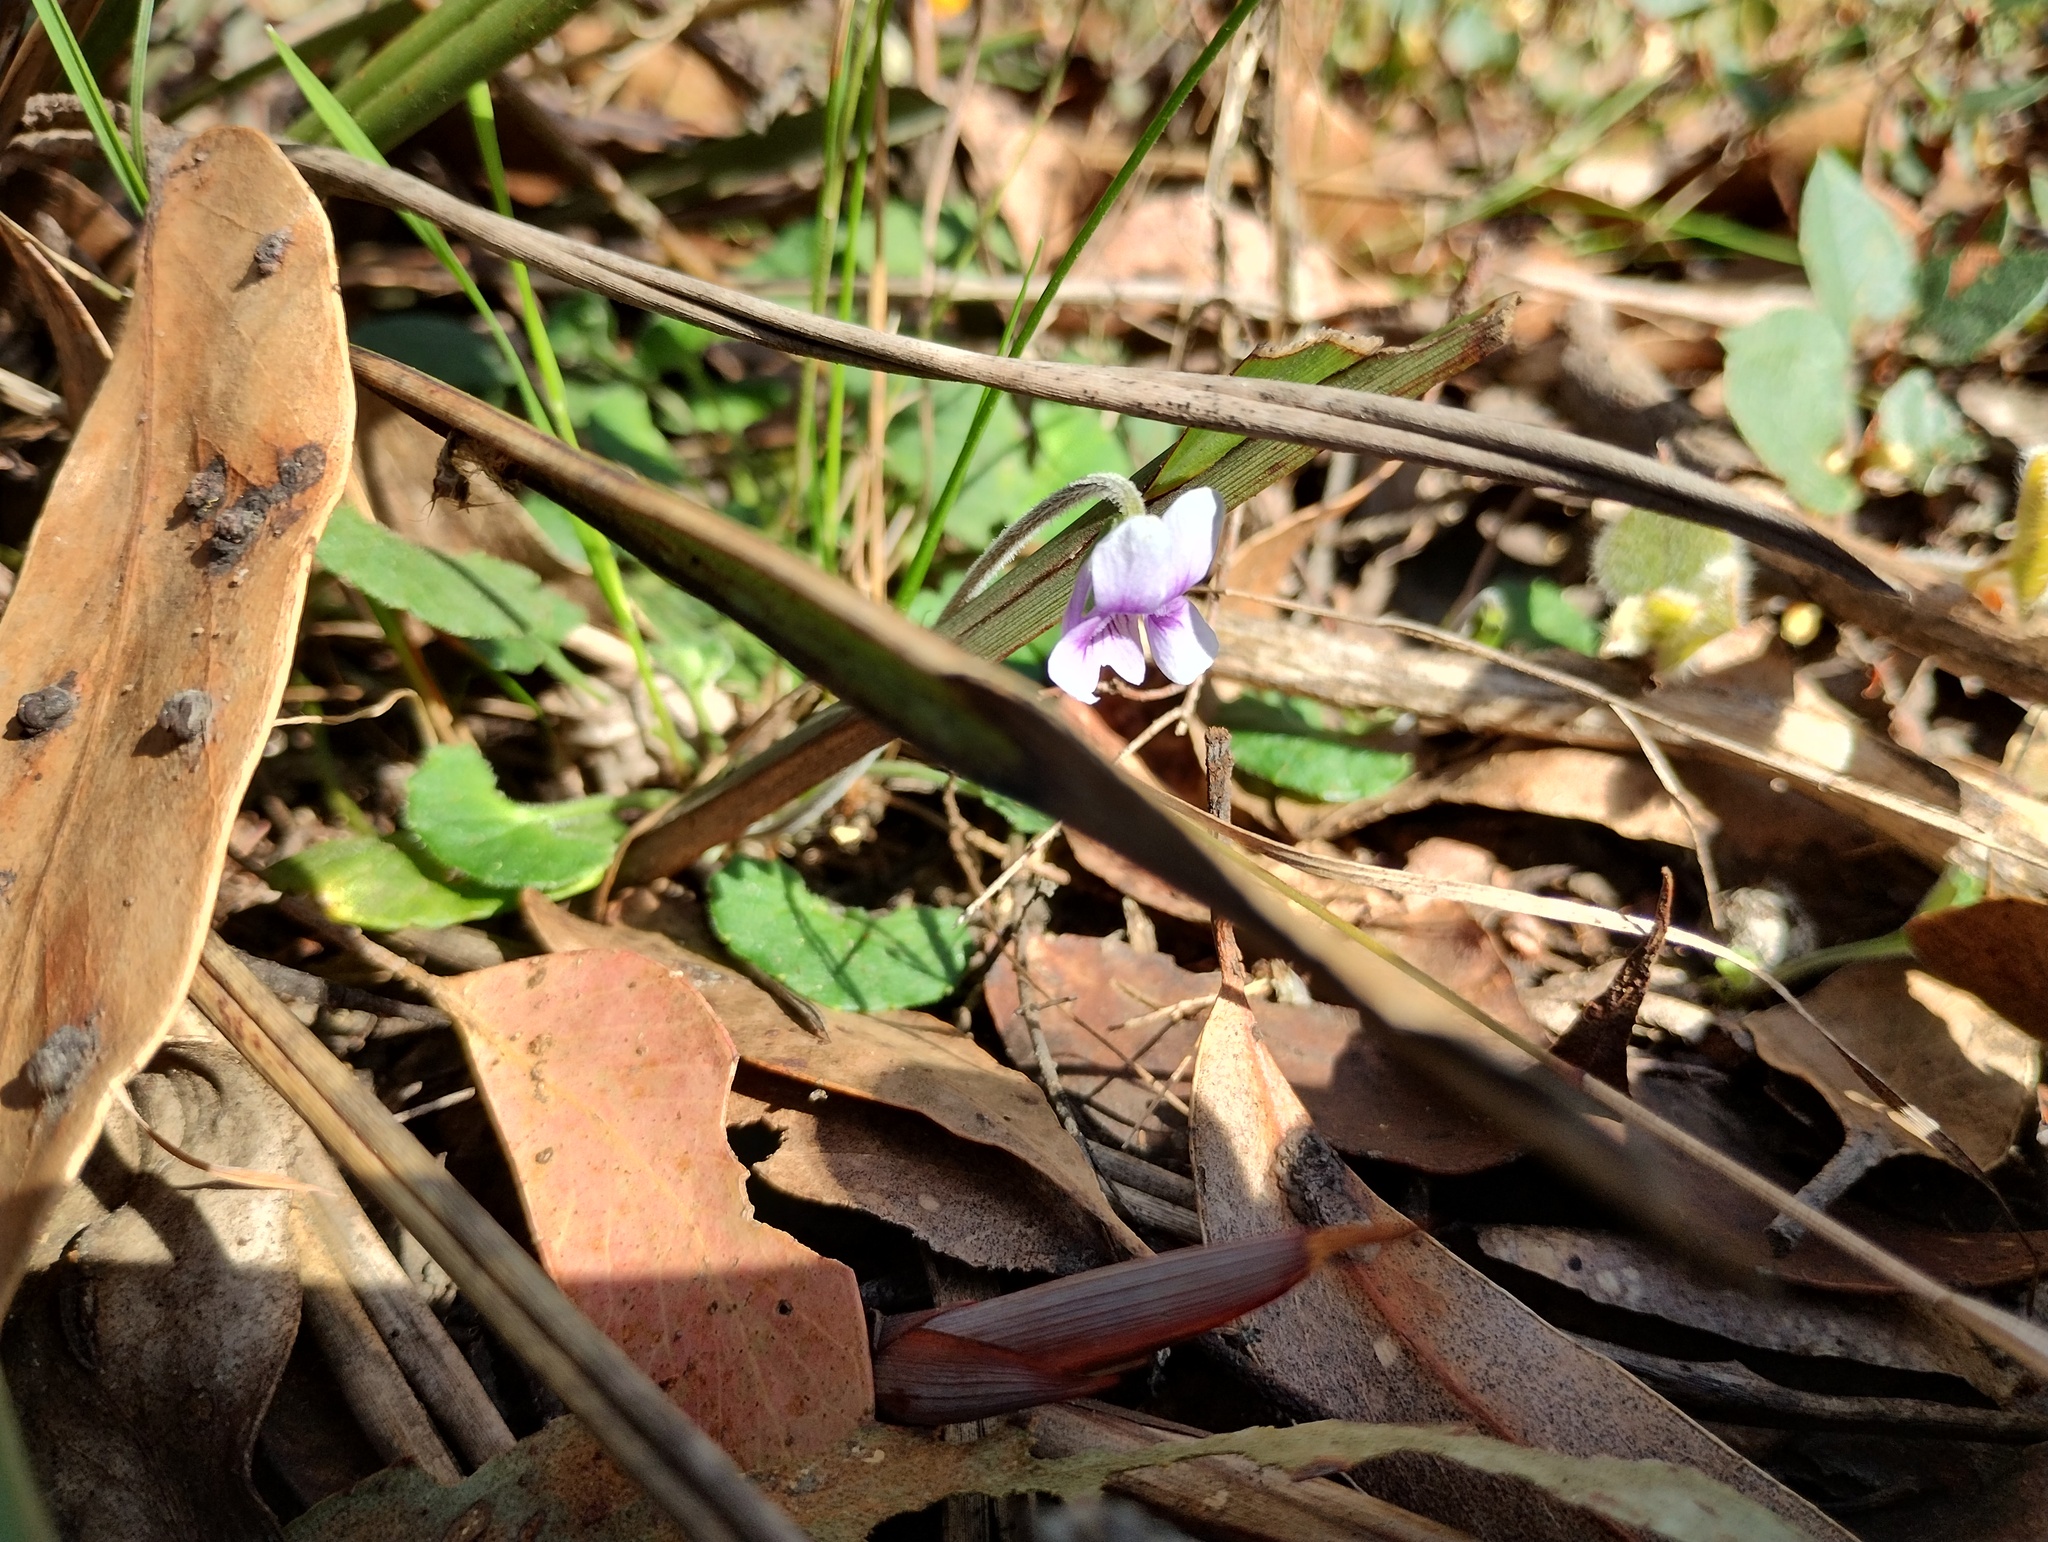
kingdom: Plantae
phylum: Tracheophyta
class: Magnoliopsida
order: Malpighiales
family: Violaceae
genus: Viola
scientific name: Viola hederacea
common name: Australian violet
